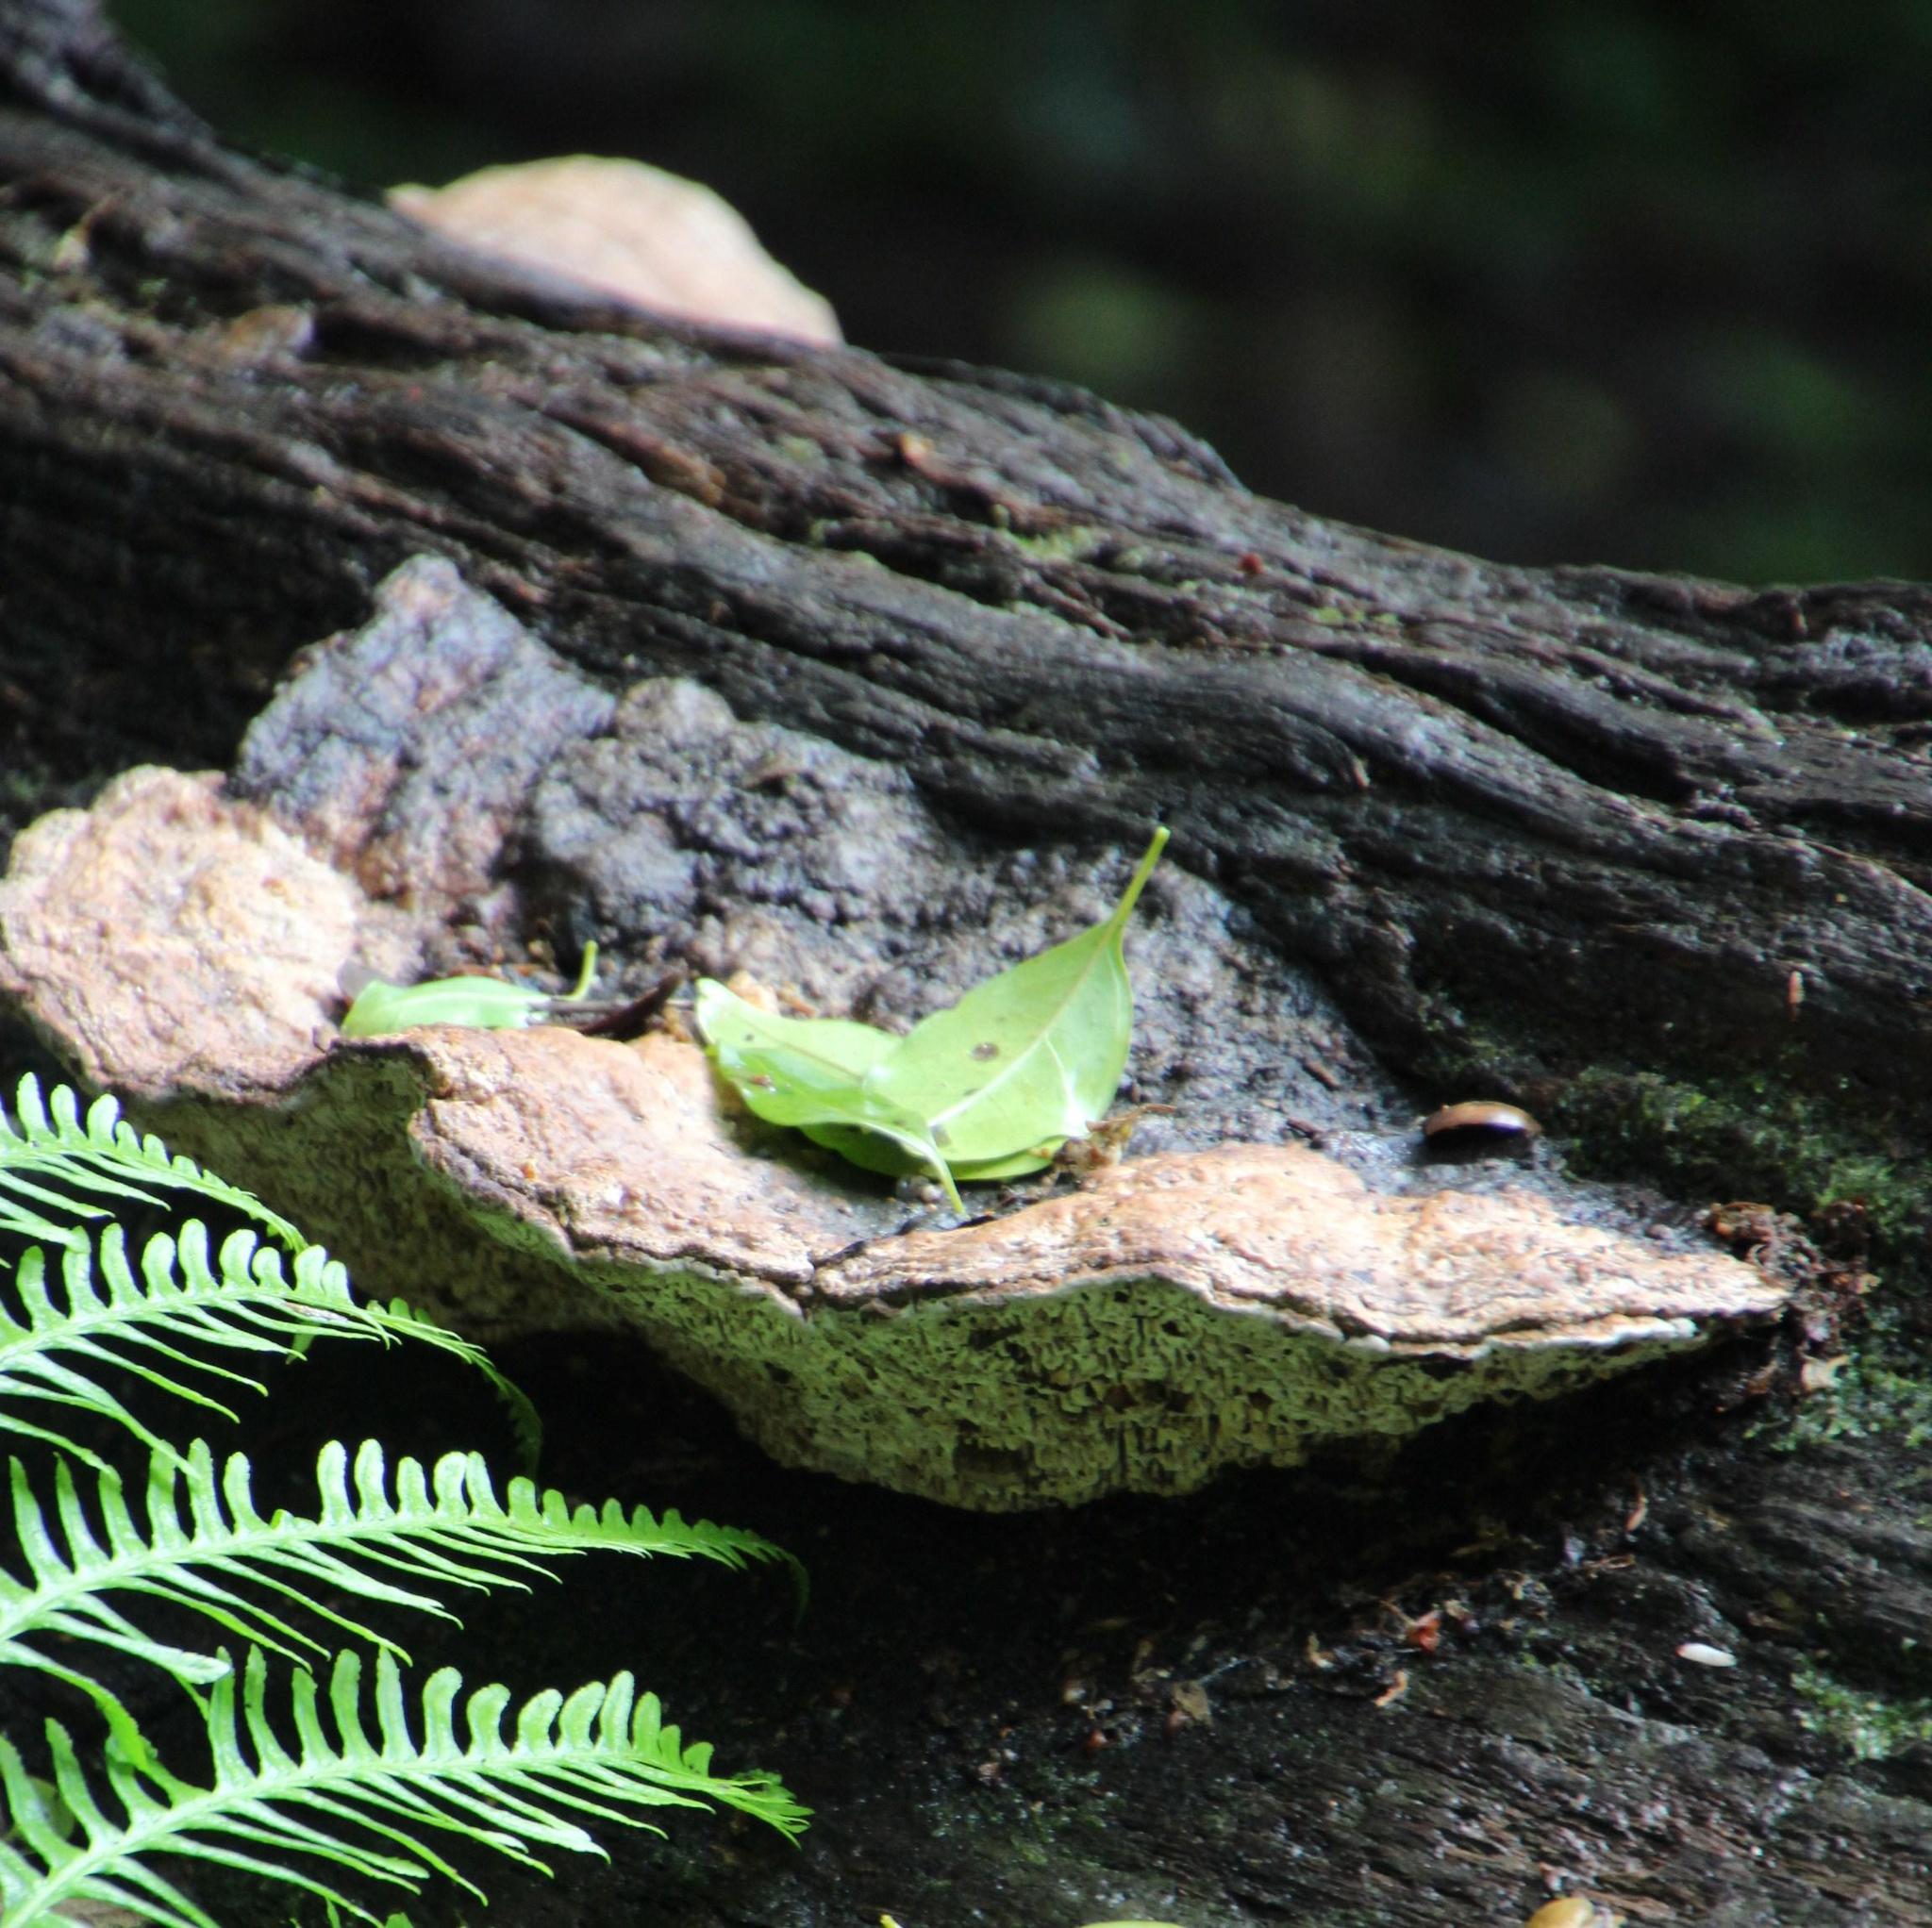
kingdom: Fungi
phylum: Basidiomycota
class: Agaricomycetes
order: Polyporales
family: Polyporaceae
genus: Daedaleopsis
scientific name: Daedaleopsis confragosa
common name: Blushing bracket
